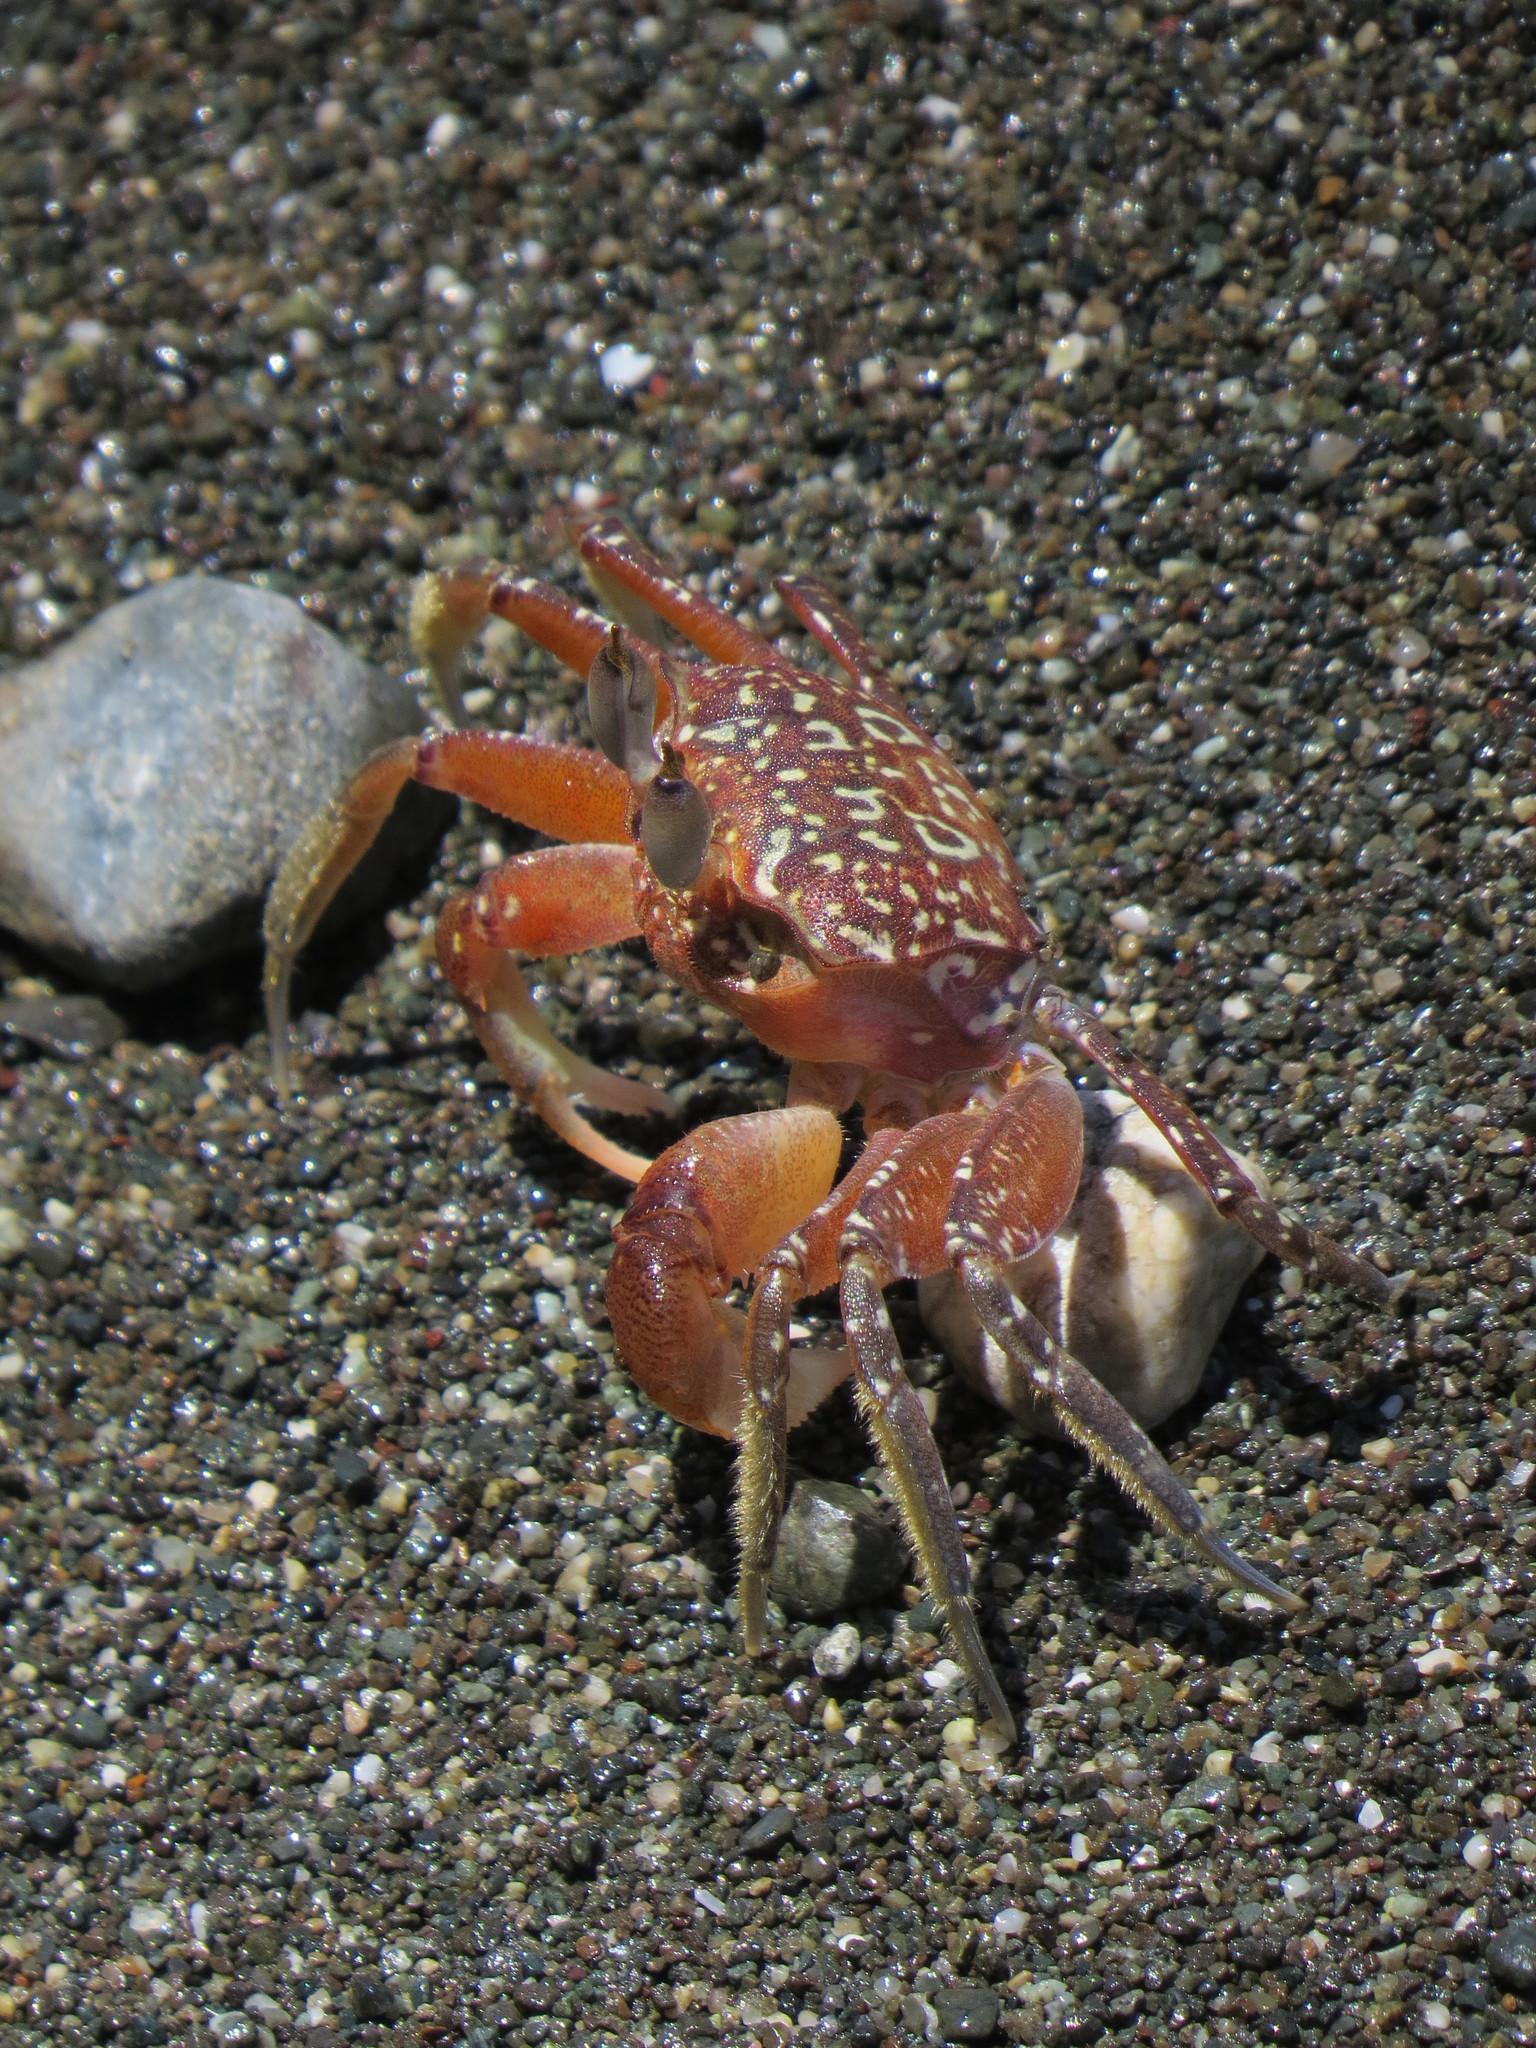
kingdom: Animalia
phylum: Arthropoda
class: Malacostraca
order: Decapoda
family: Ocypodidae
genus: Ocypode
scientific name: Ocypode gaudichaudii
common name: Pacific ghost crab
